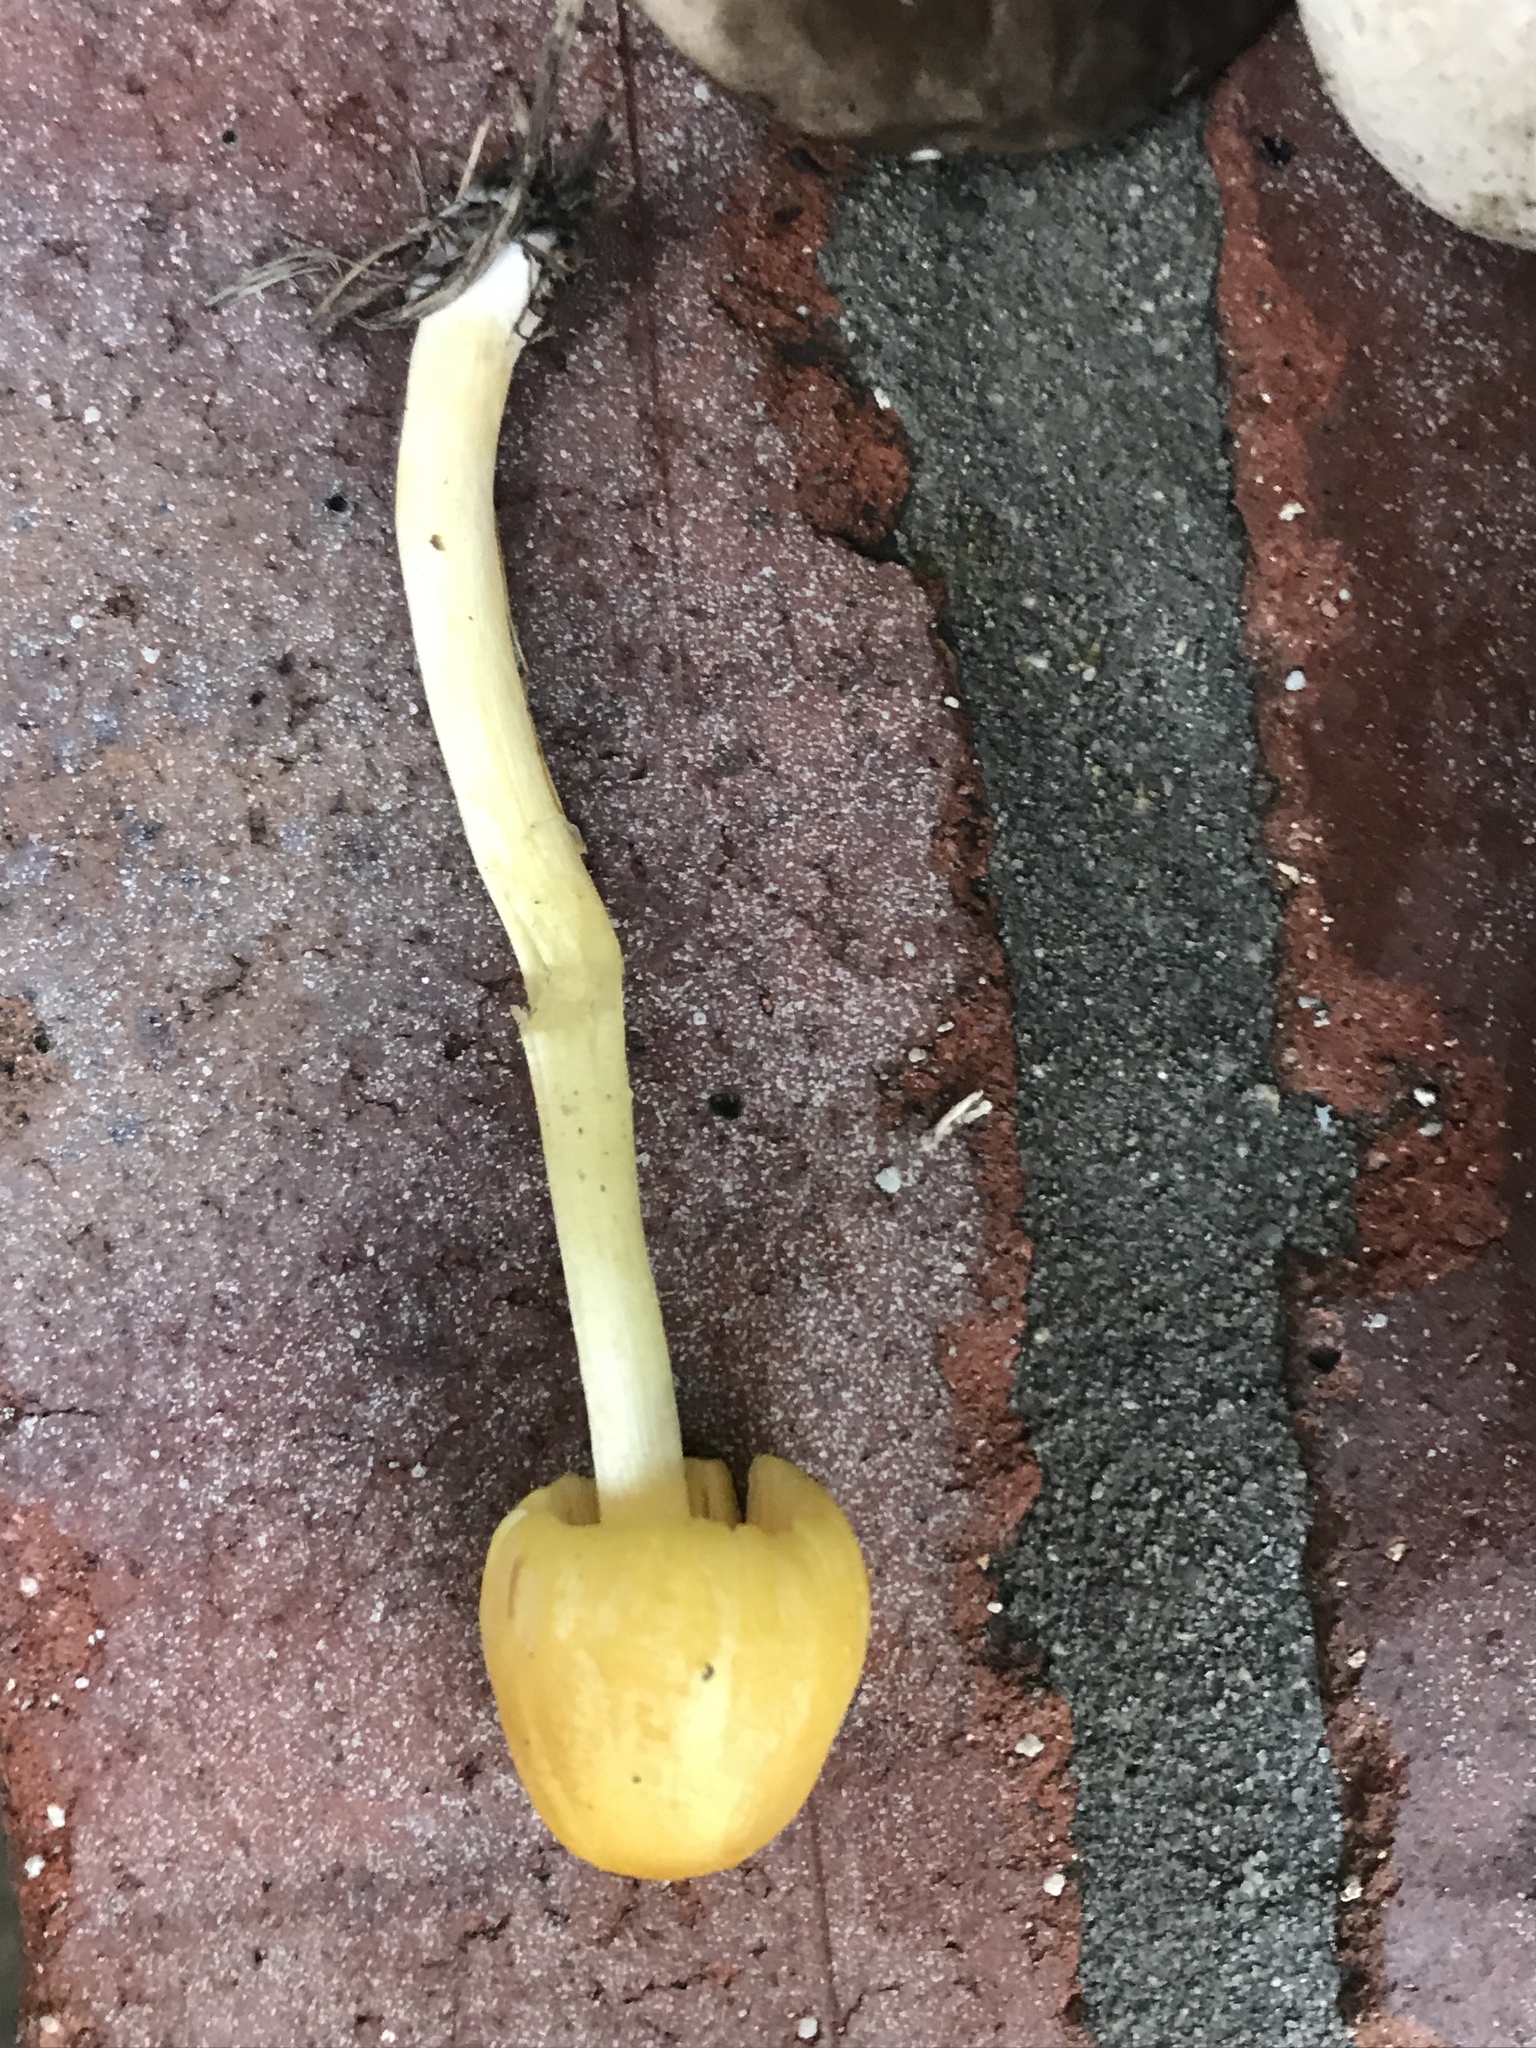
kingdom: Fungi
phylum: Basidiomycota
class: Agaricomycetes
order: Agaricales
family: Bolbitiaceae
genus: Bolbitius
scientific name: Bolbitius titubans
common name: Yellow fieldcap
